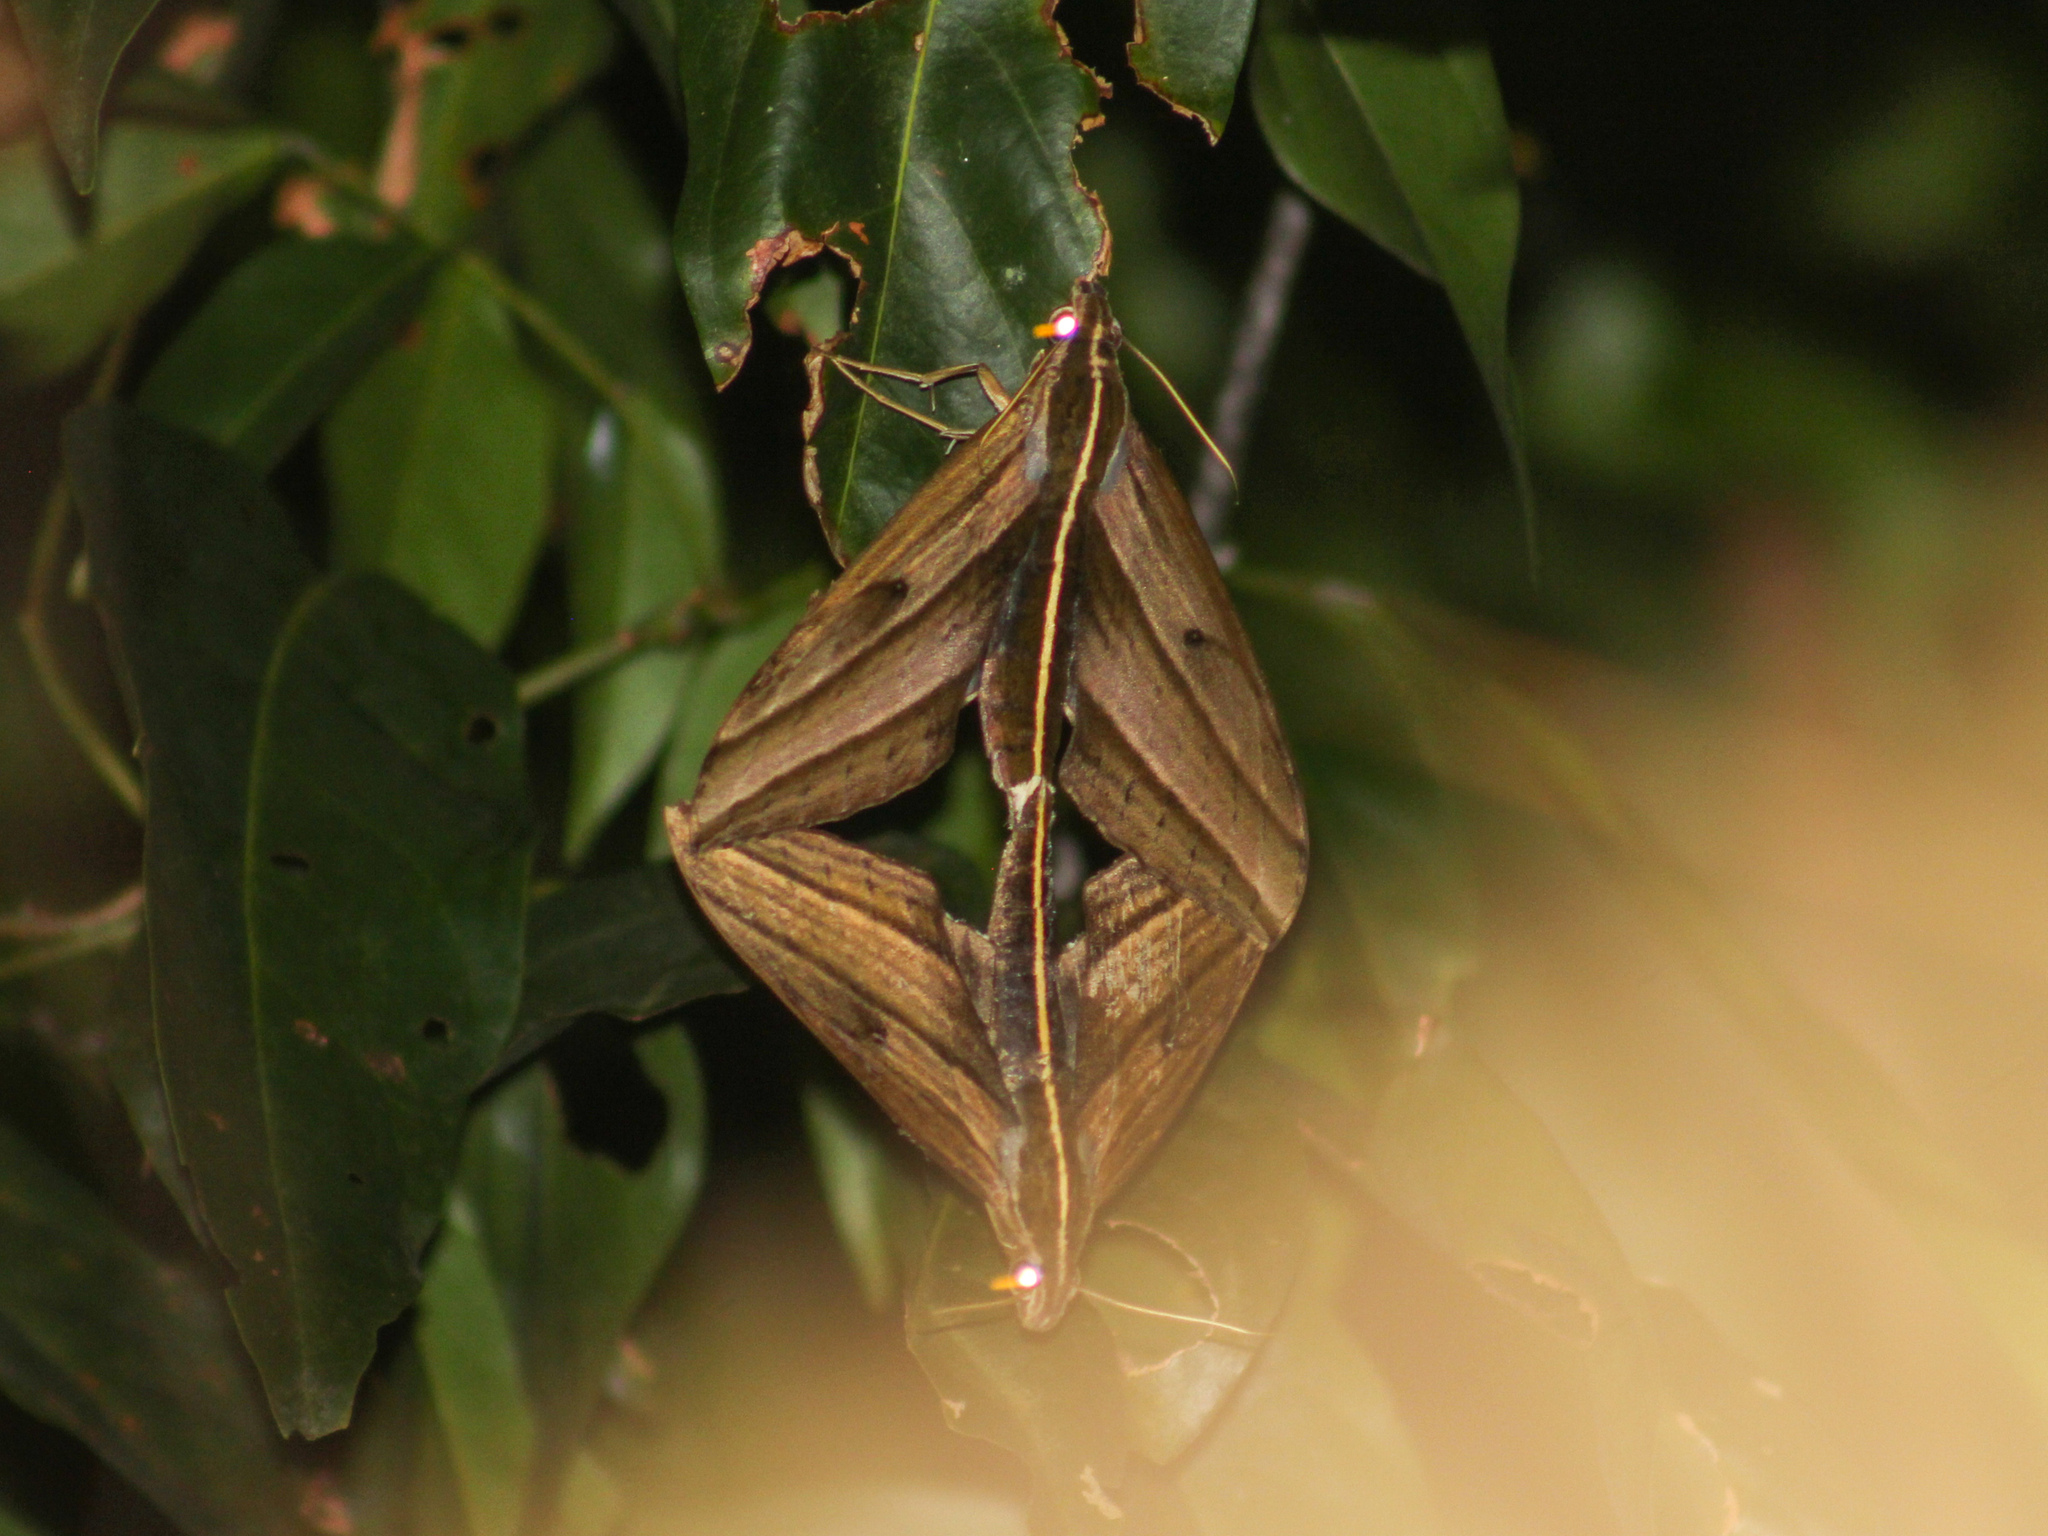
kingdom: Animalia
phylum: Arthropoda
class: Insecta
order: Lepidoptera
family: Sphingidae
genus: Elibia
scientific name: Elibia dolichus
